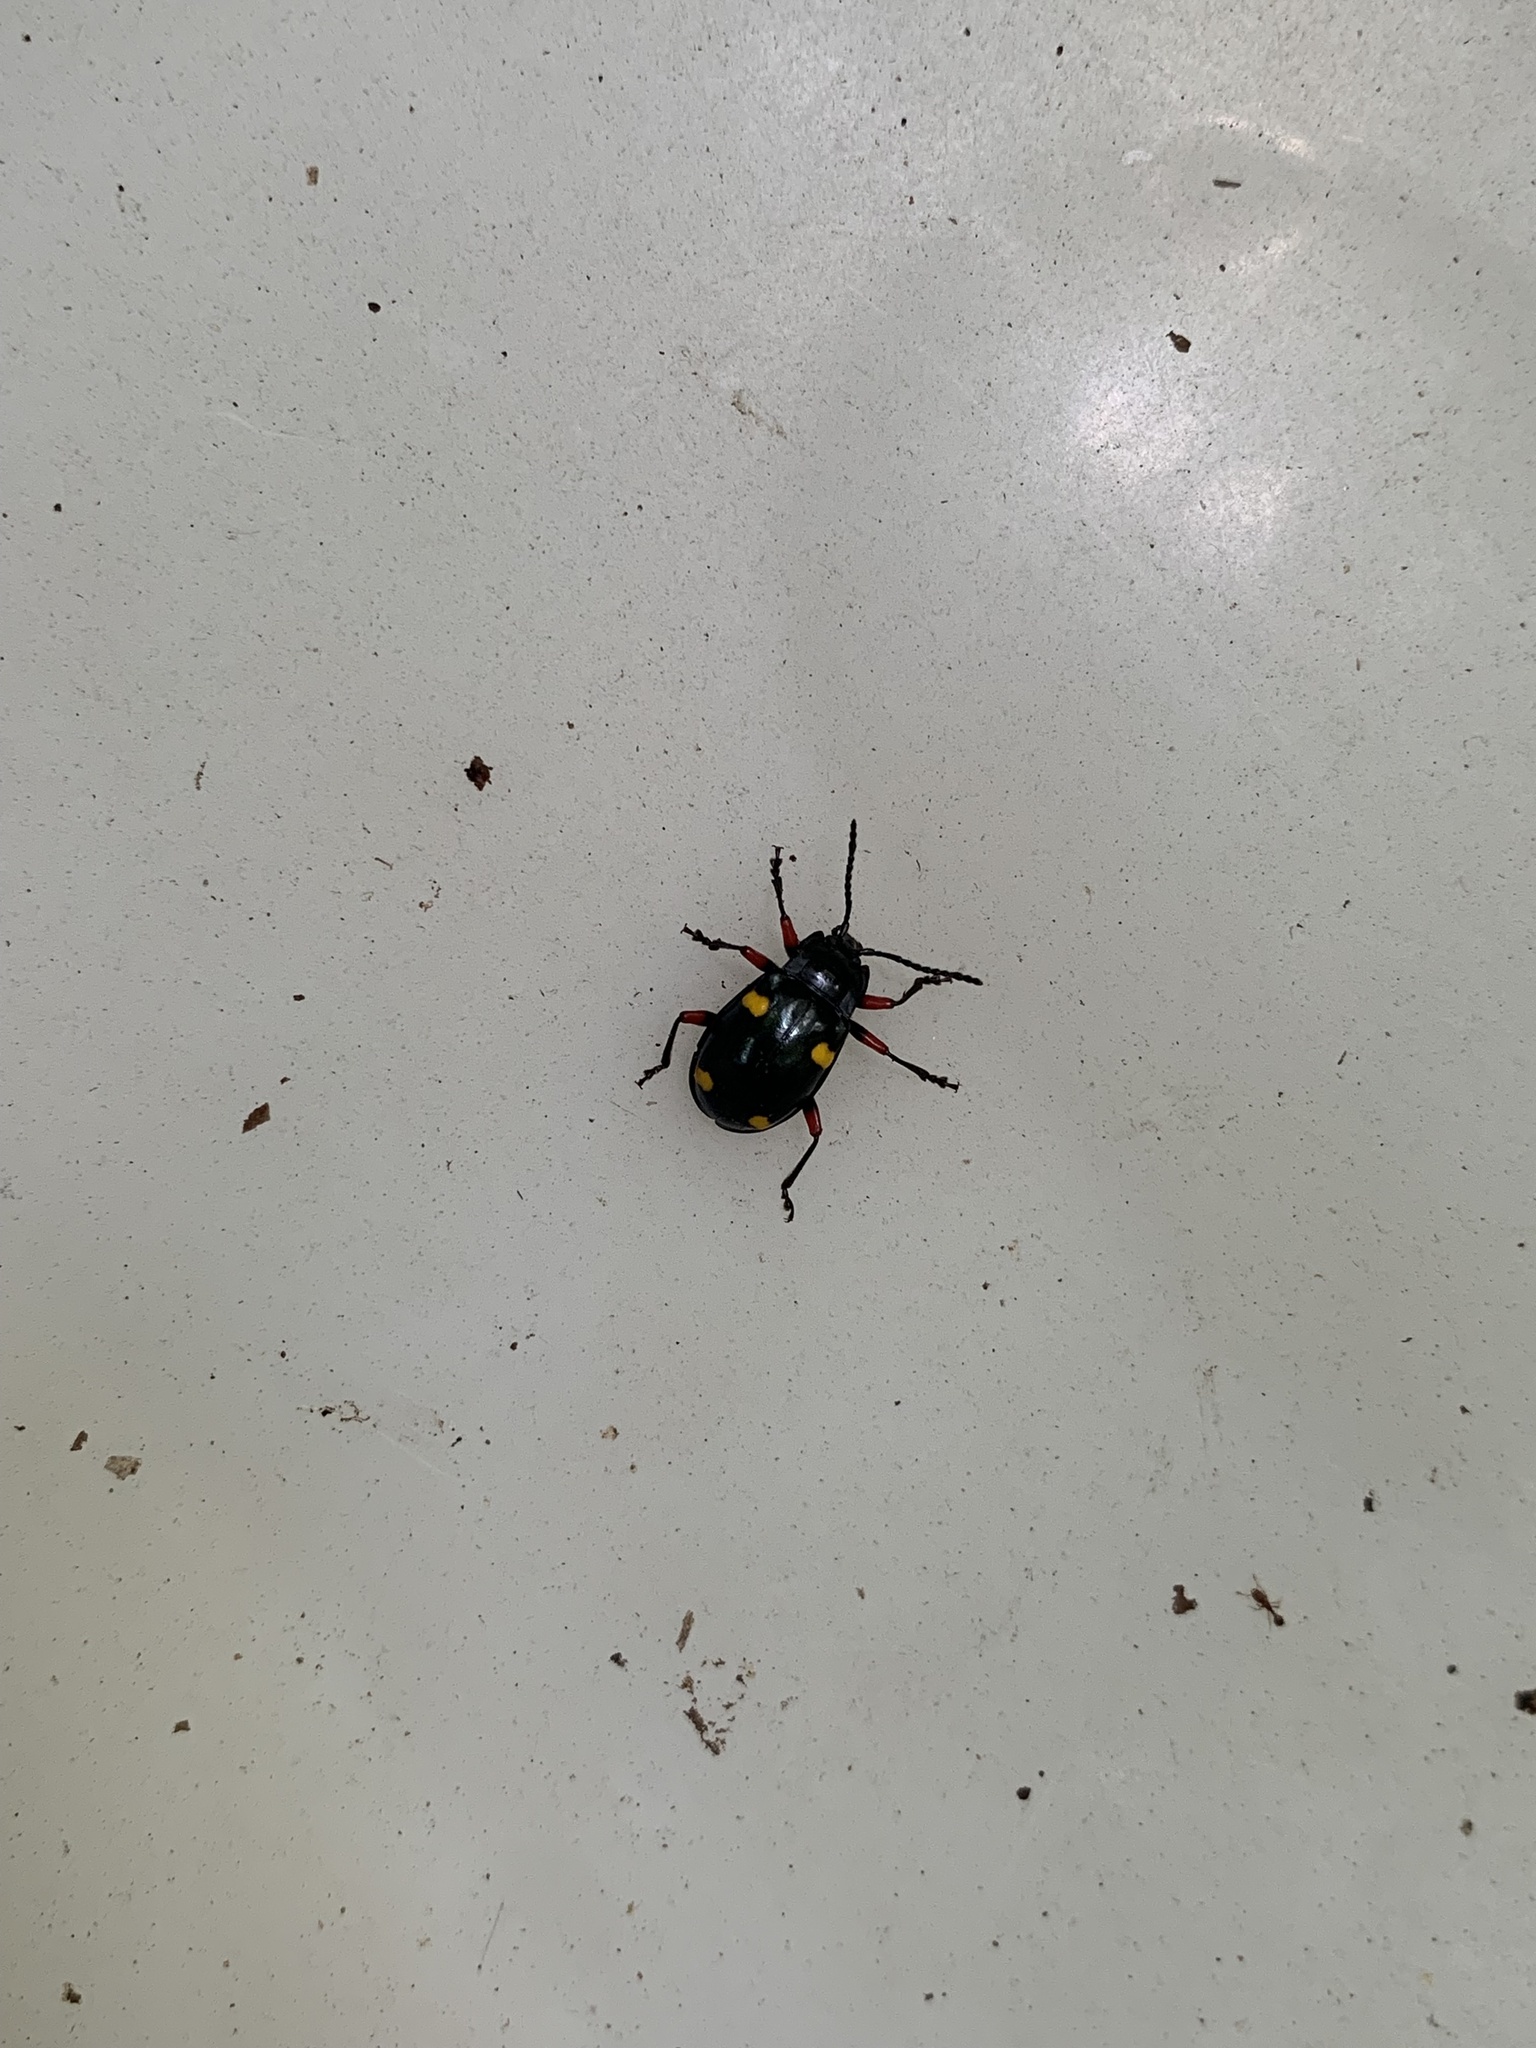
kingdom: Animalia
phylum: Arthropoda
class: Insecta
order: Coleoptera
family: Endomychidae
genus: Eumorphus
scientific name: Eumorphus quadriguttatus
